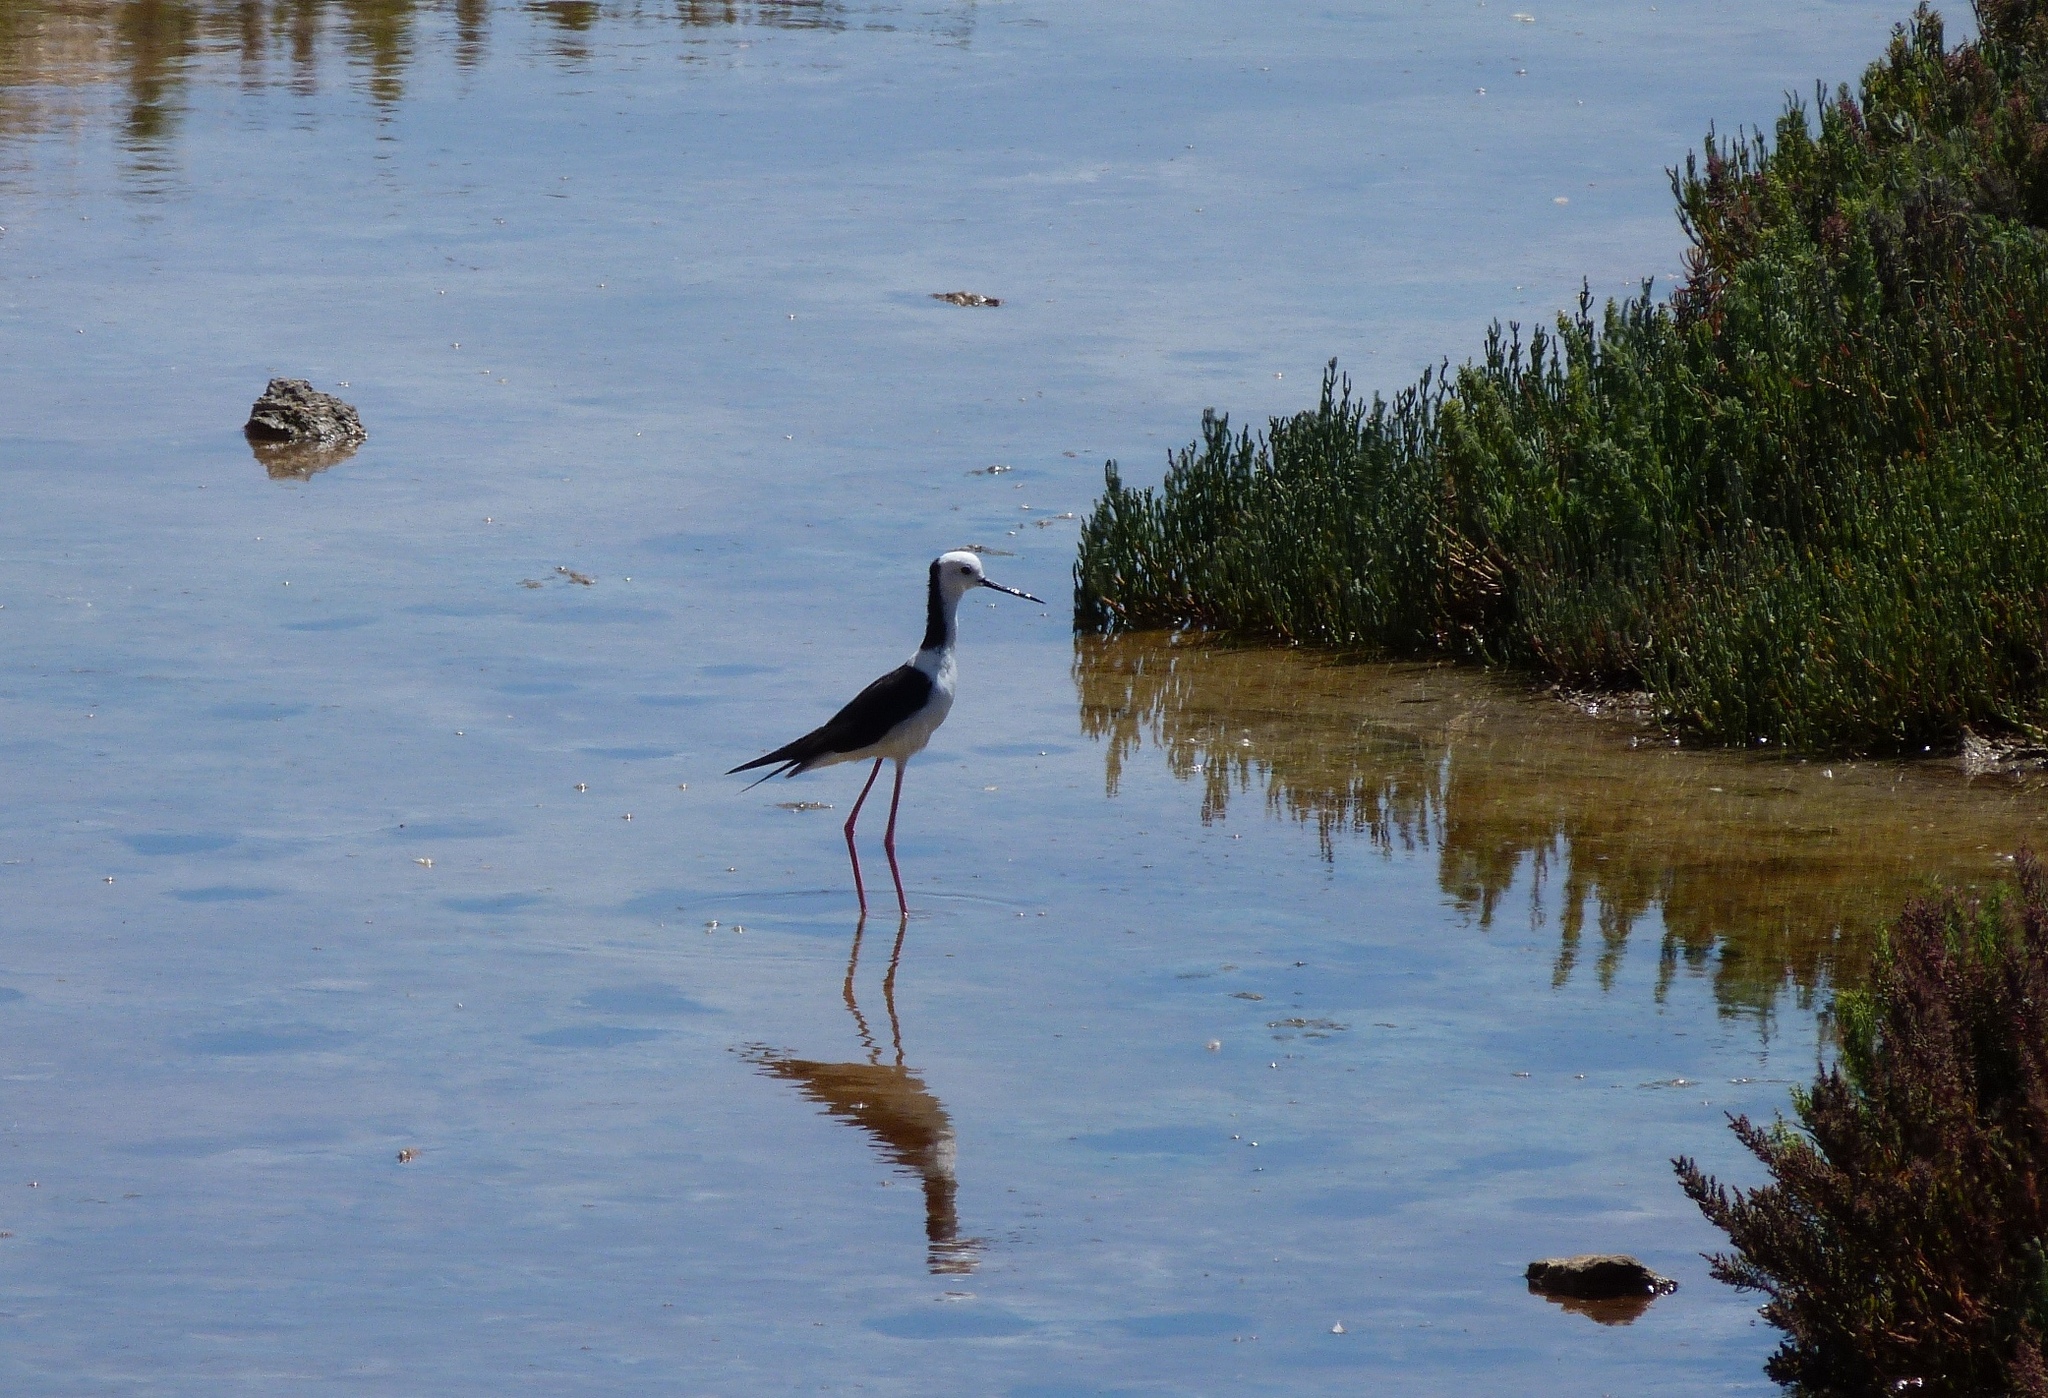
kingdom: Animalia
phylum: Chordata
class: Aves
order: Charadriiformes
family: Recurvirostridae
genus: Himantopus
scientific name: Himantopus leucocephalus
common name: White-headed stilt
